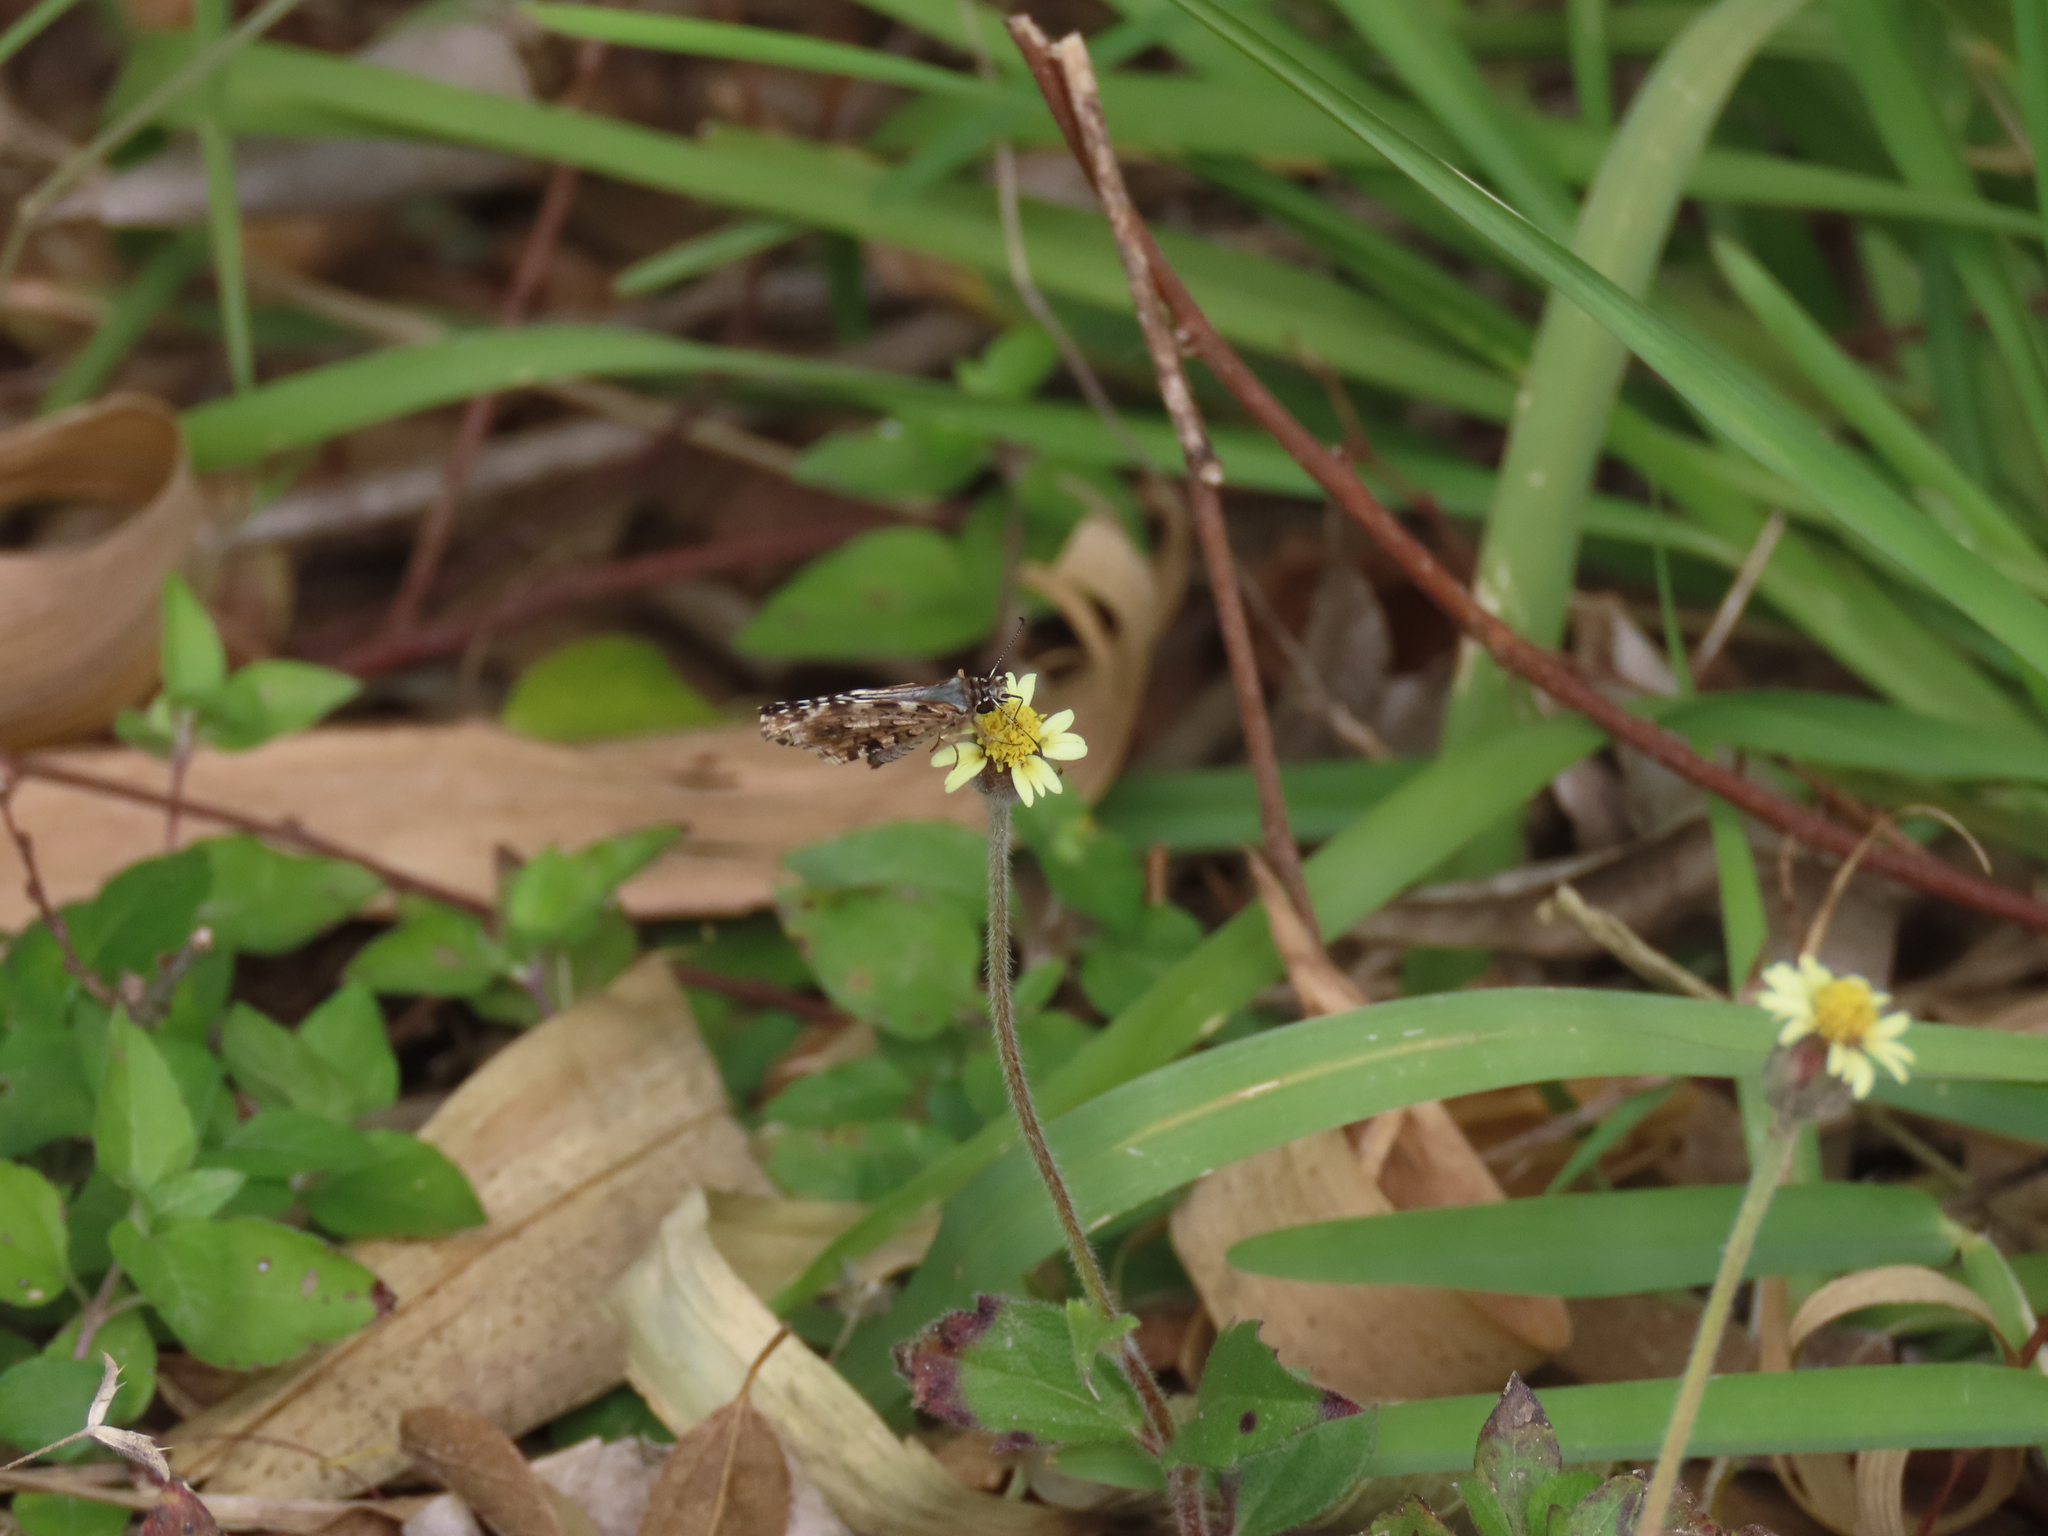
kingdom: Animalia
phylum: Arthropoda
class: Insecta
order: Lepidoptera
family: Hesperiidae
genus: Pyrgus
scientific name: Pyrgus oileus
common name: Tropical checkered-skipper
